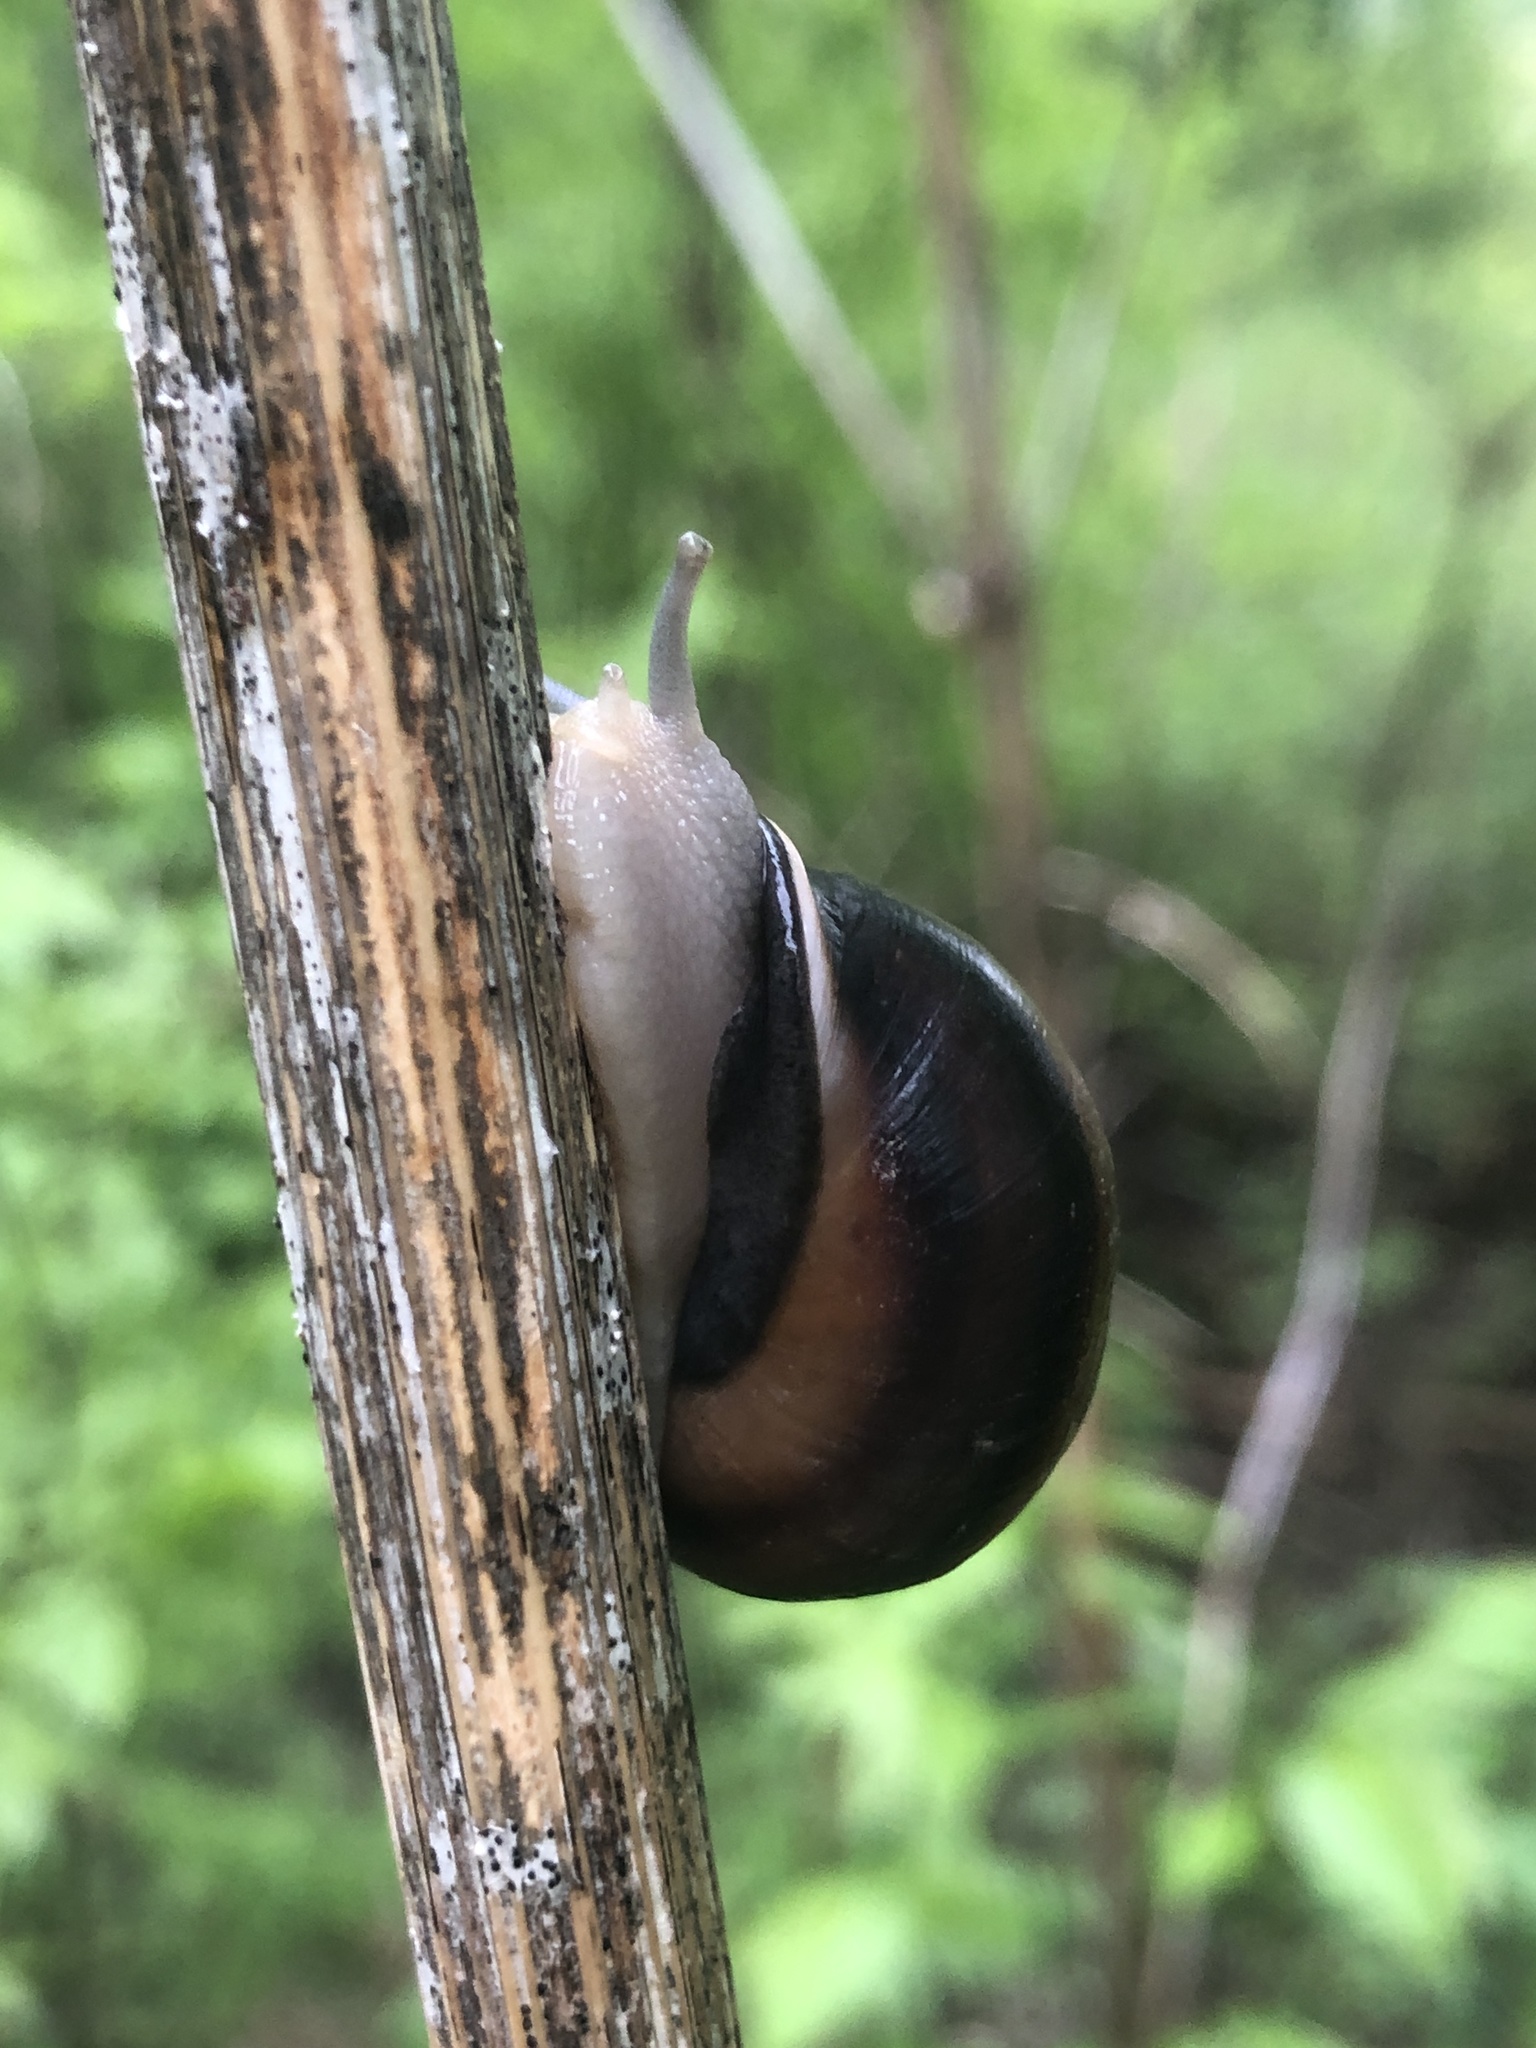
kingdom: Animalia
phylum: Mollusca
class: Gastropoda
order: Stylommatophora
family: Helicidae
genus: Otala
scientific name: Otala lactea
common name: Milk snail
